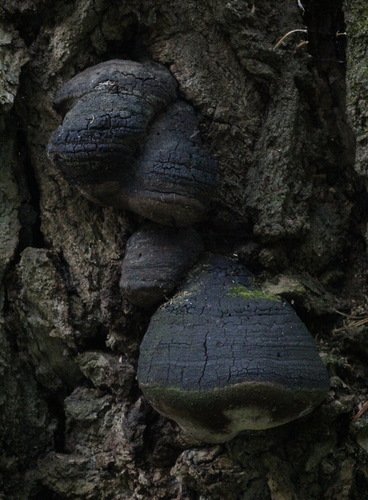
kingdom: Fungi
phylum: Basidiomycota
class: Agaricomycetes
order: Hymenochaetales
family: Hymenochaetaceae
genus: Phellinus
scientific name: Phellinus
